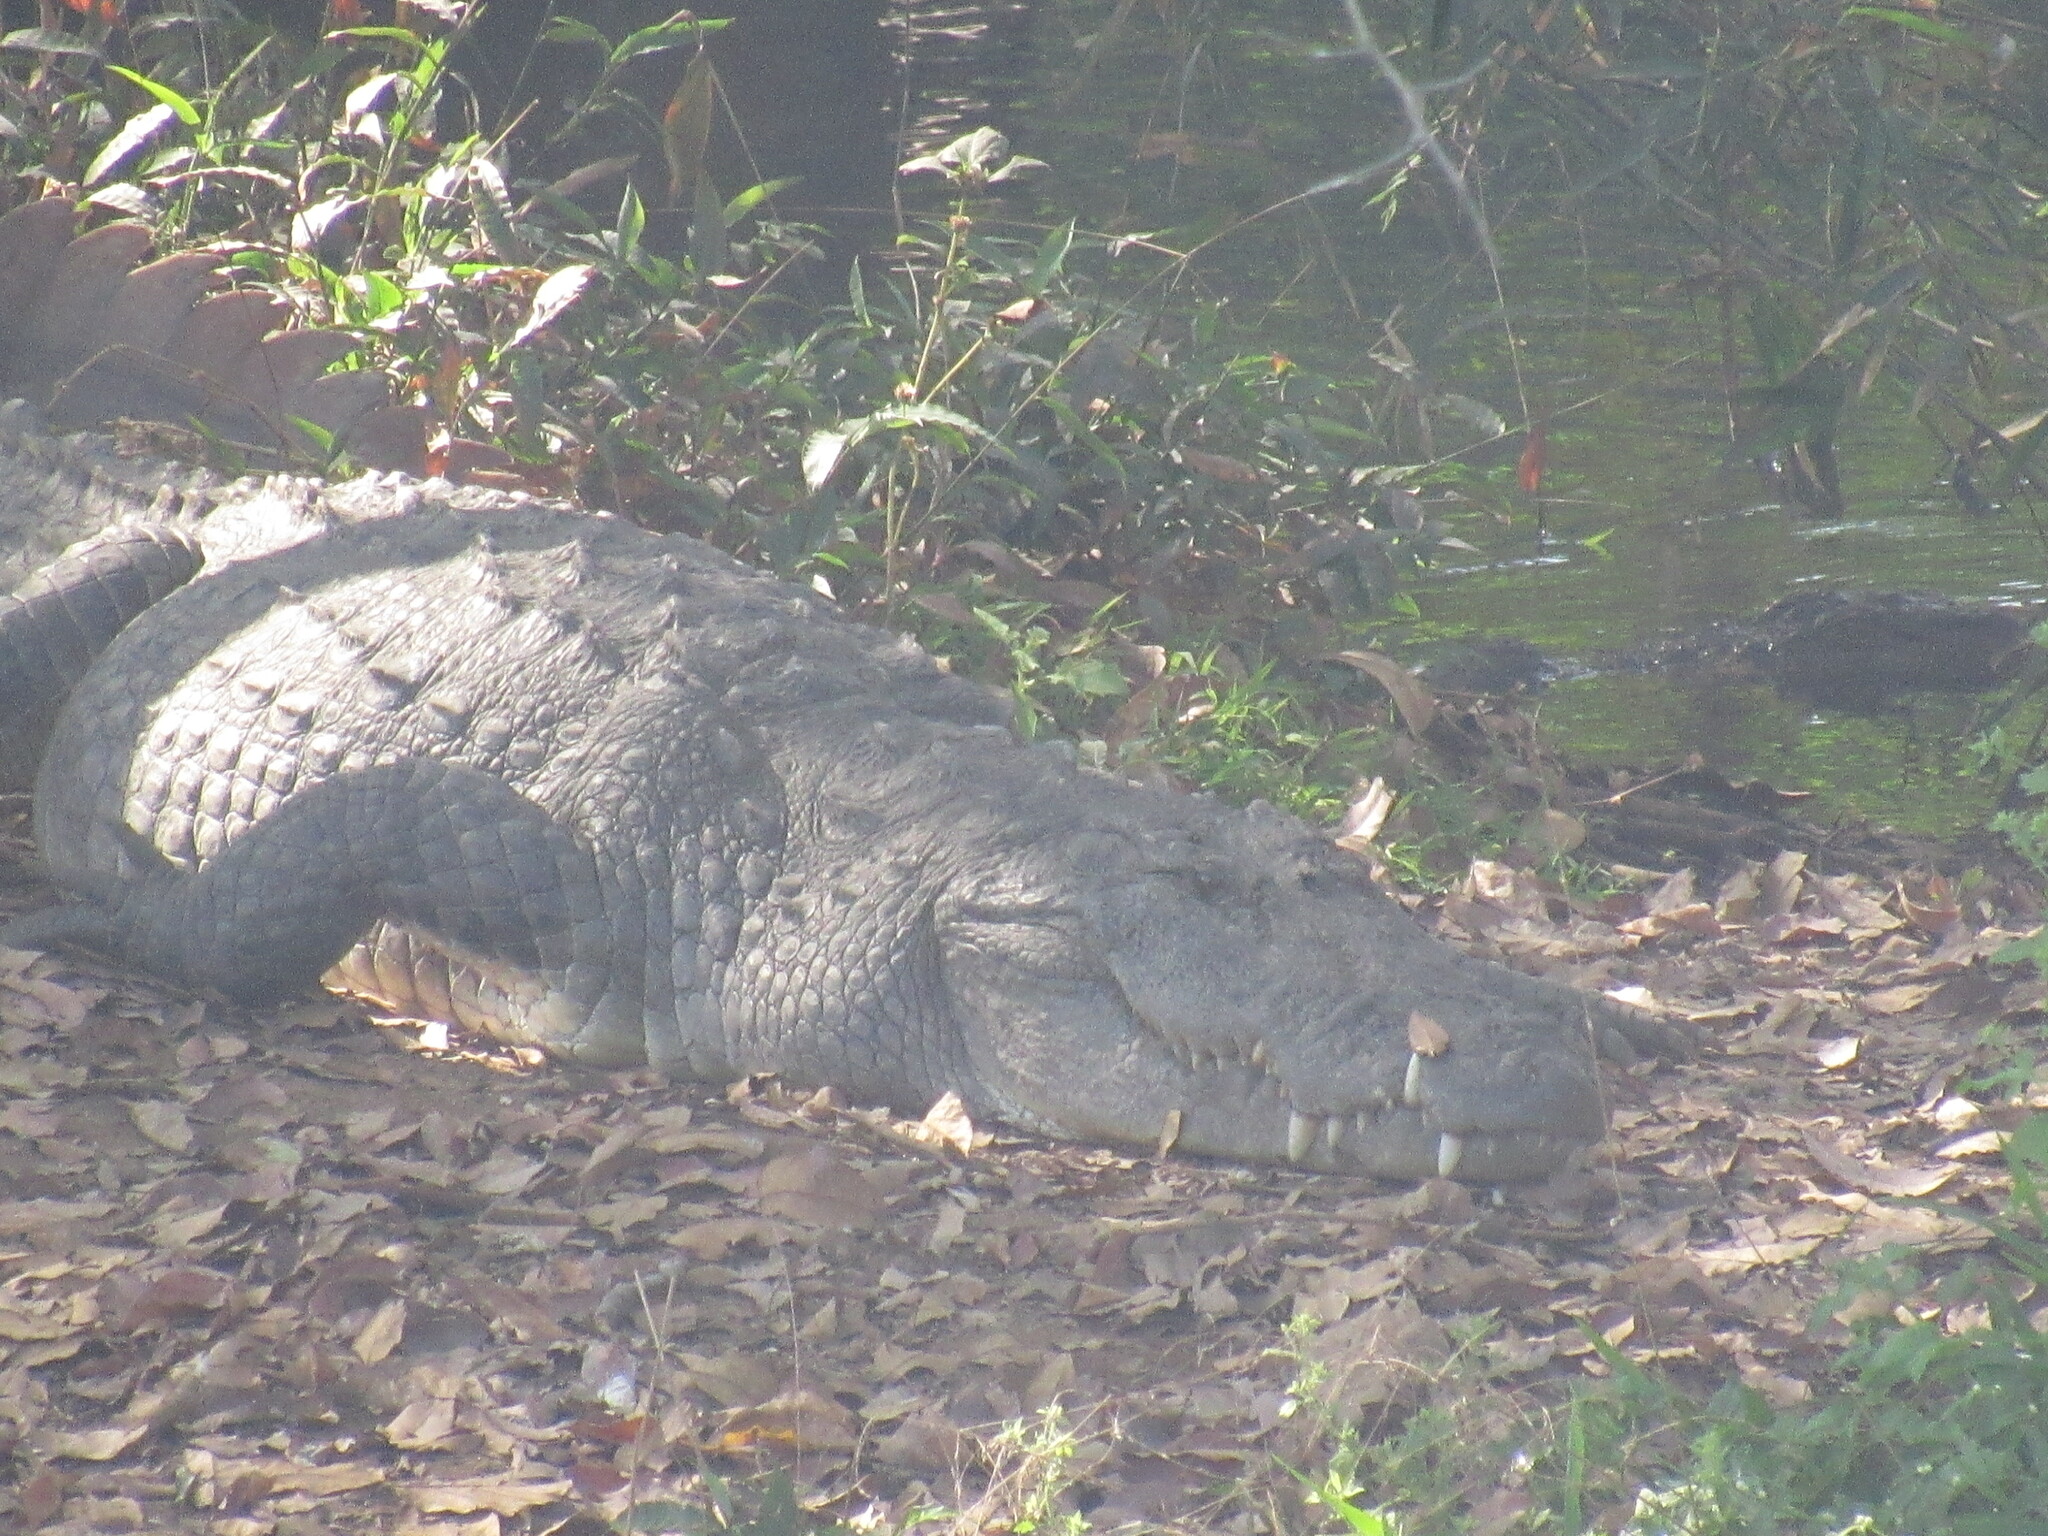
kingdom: Animalia
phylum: Chordata
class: Crocodylia
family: Crocodylidae
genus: Crocodylus
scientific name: Crocodylus palustris
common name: Mugger crocodile
